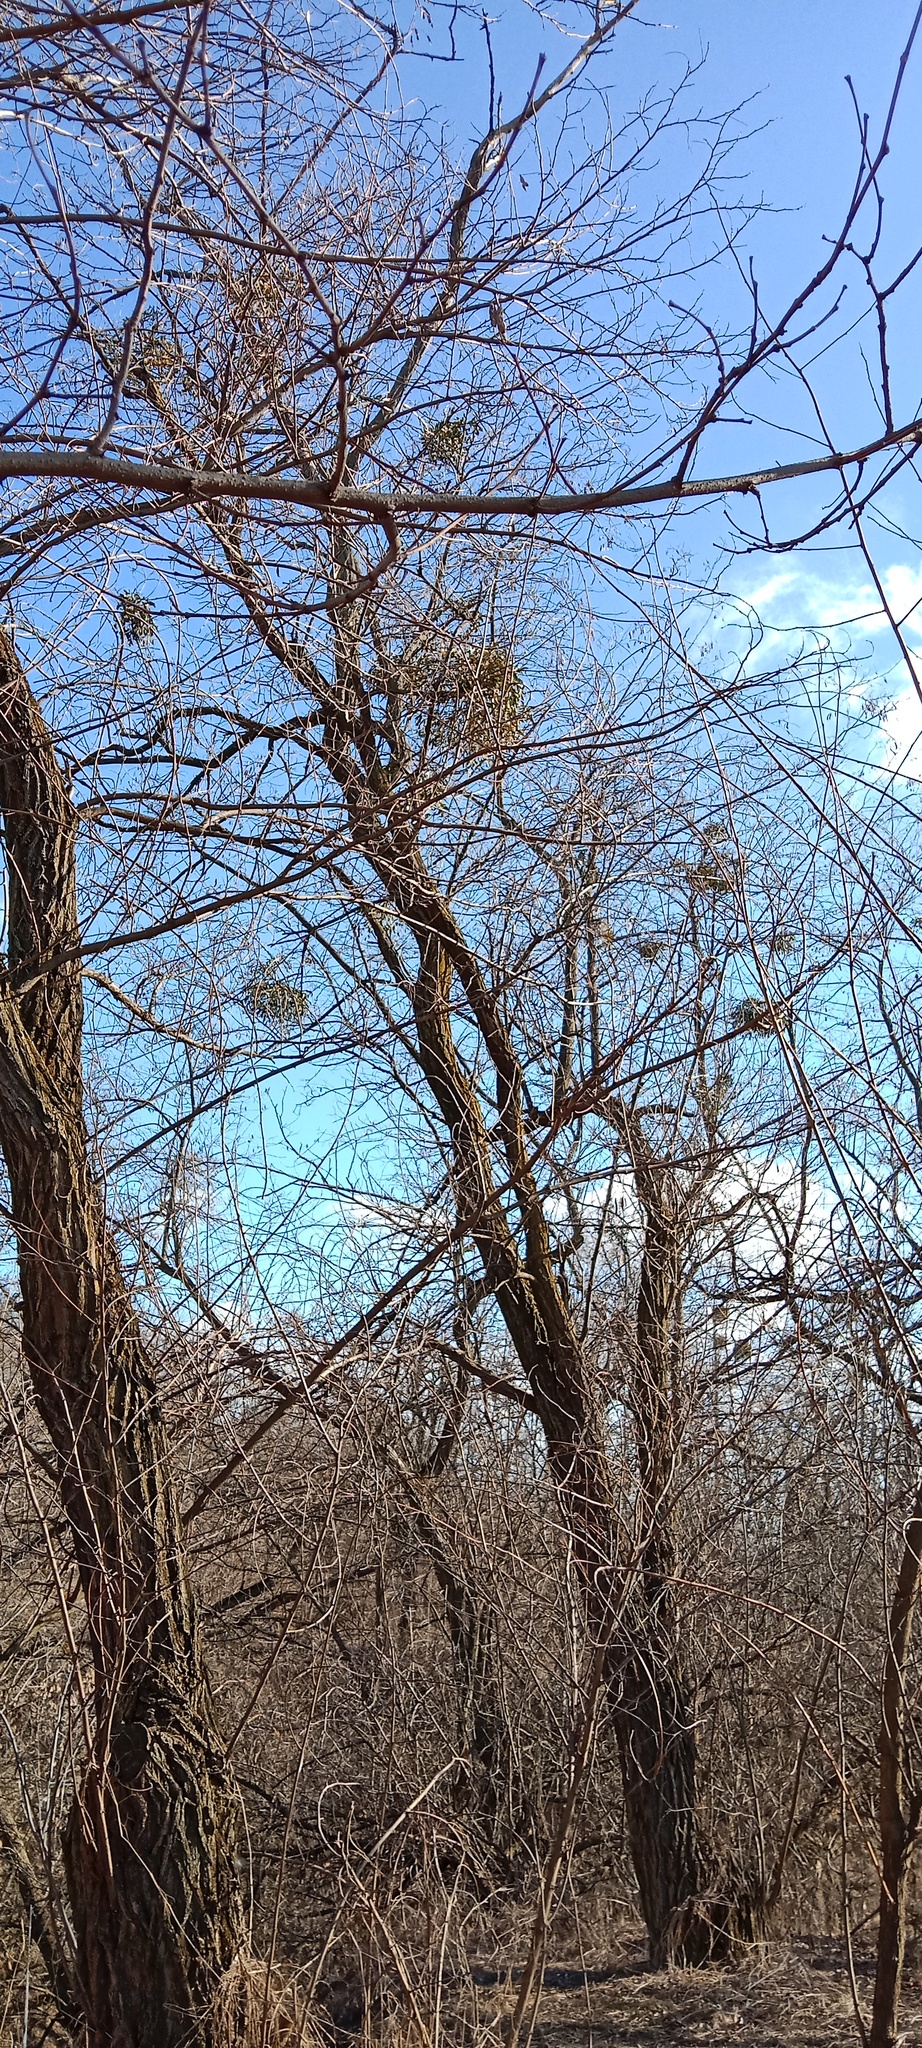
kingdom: Plantae
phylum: Tracheophyta
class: Magnoliopsida
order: Santalales
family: Viscaceae
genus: Viscum
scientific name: Viscum album
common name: Mistletoe
